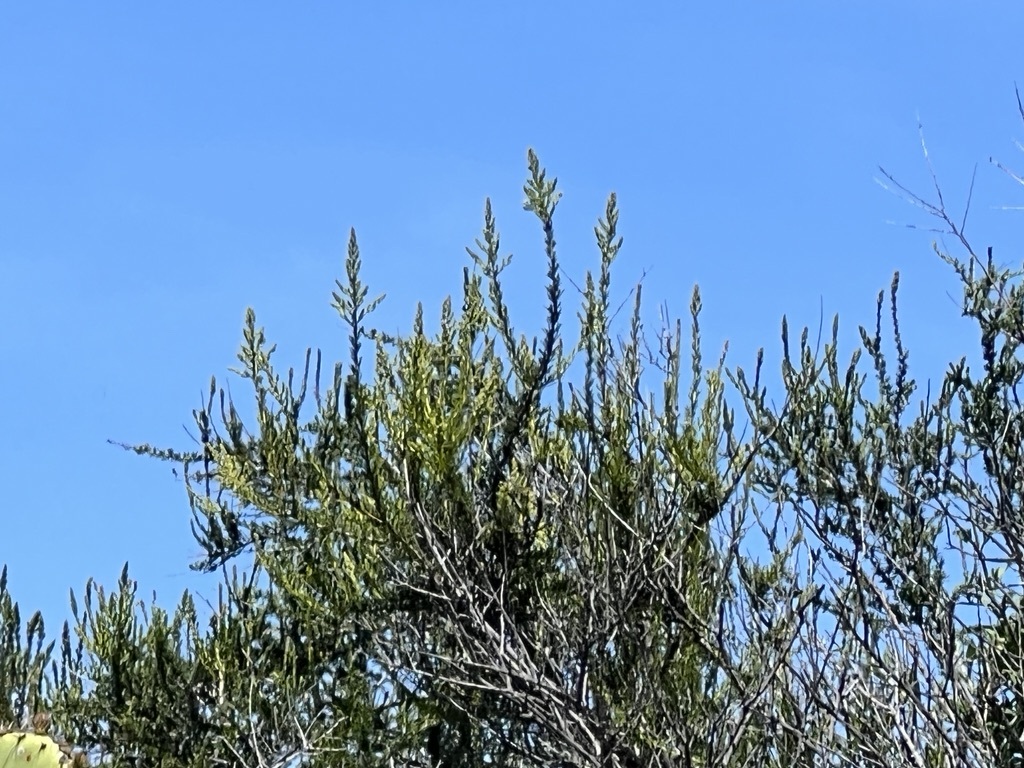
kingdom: Plantae
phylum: Tracheophyta
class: Magnoliopsida
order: Rosales
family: Rosaceae
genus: Adenostoma
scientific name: Adenostoma fasciculatum
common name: Chamise
